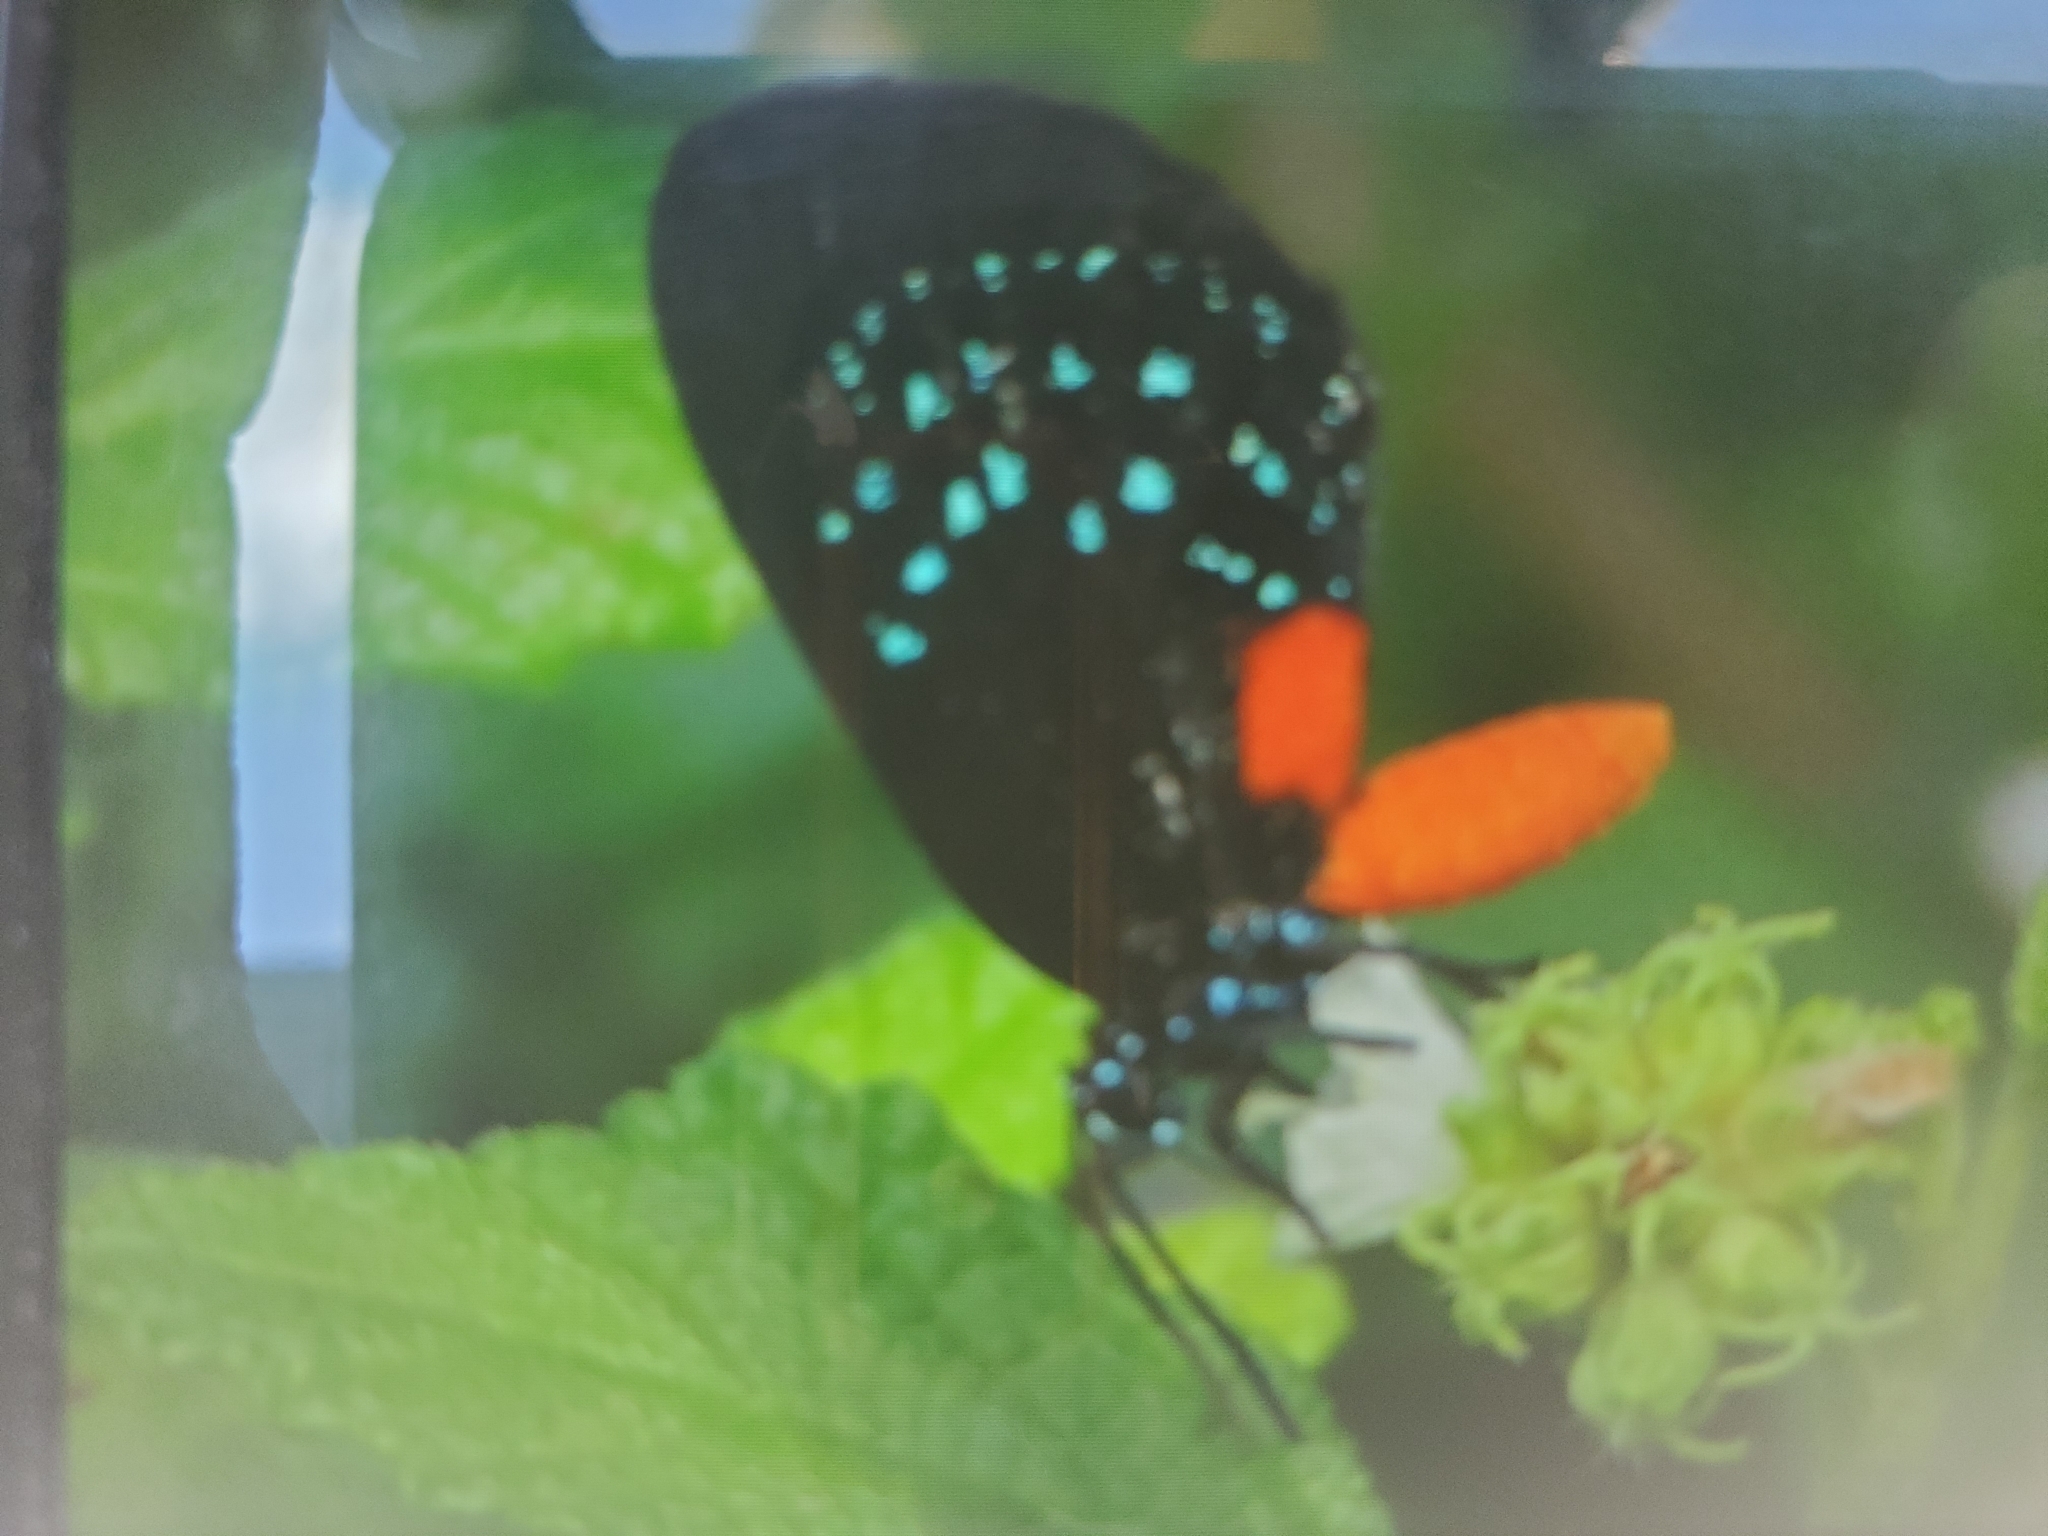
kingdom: Animalia
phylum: Arthropoda
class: Insecta
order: Lepidoptera
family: Lycaenidae
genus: Eumaeus
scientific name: Eumaeus atala
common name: Atala
